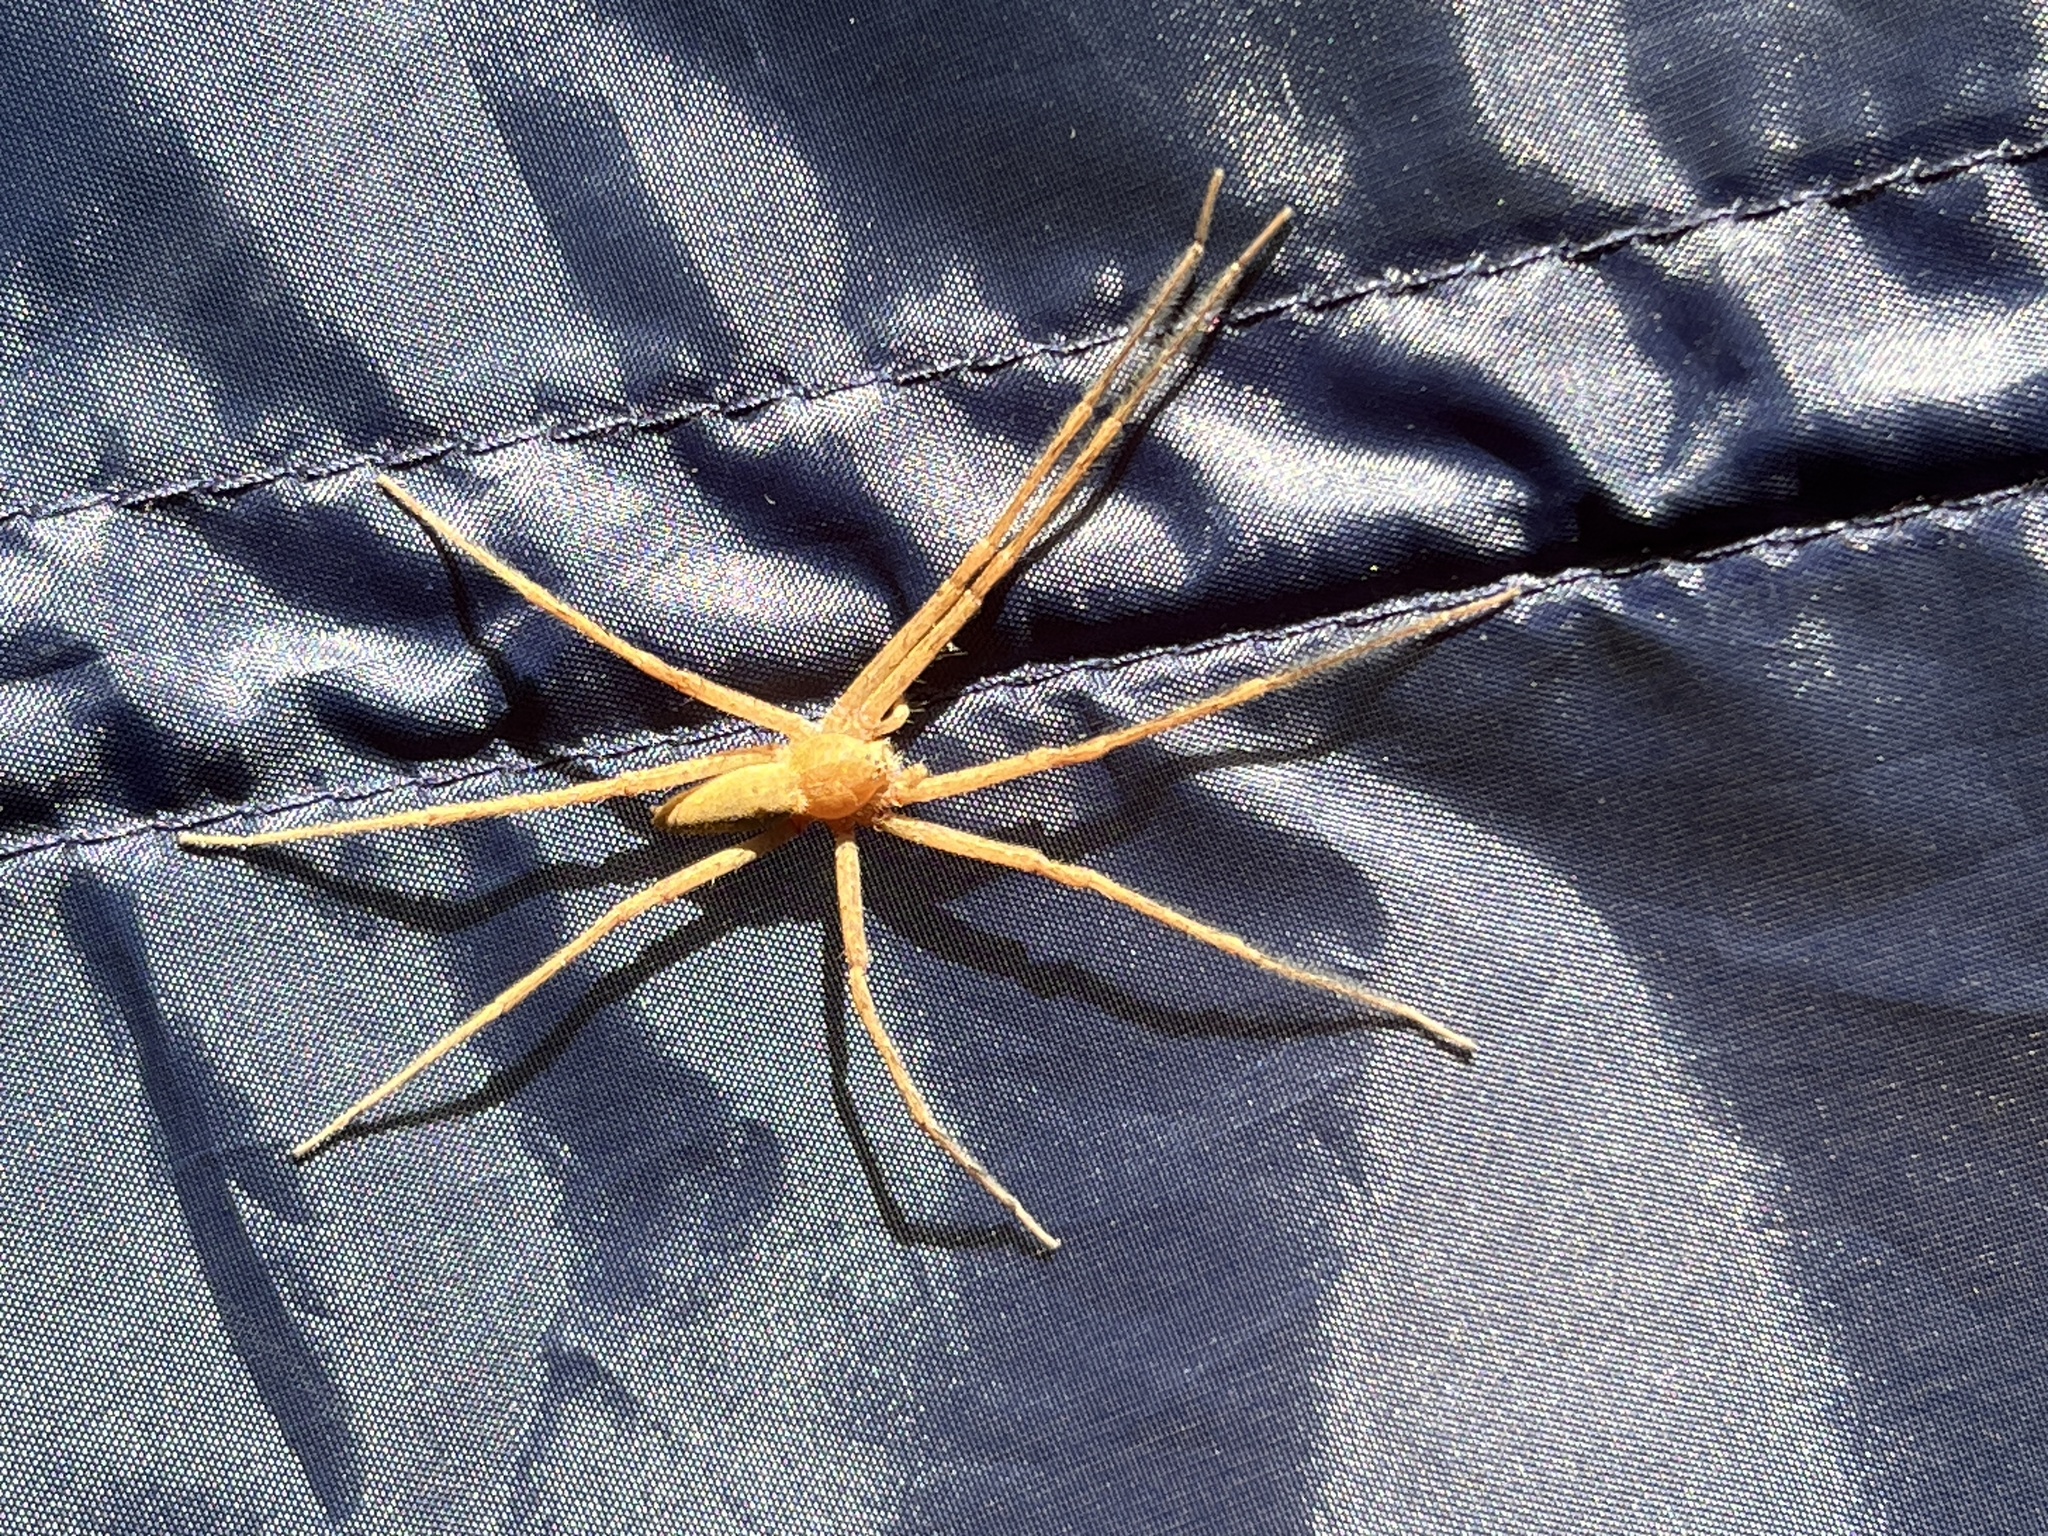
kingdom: Animalia
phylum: Arthropoda
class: Arachnida
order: Araneae
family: Pisauridae
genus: Pisaurina
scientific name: Pisaurina mira
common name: American nursery web spider
